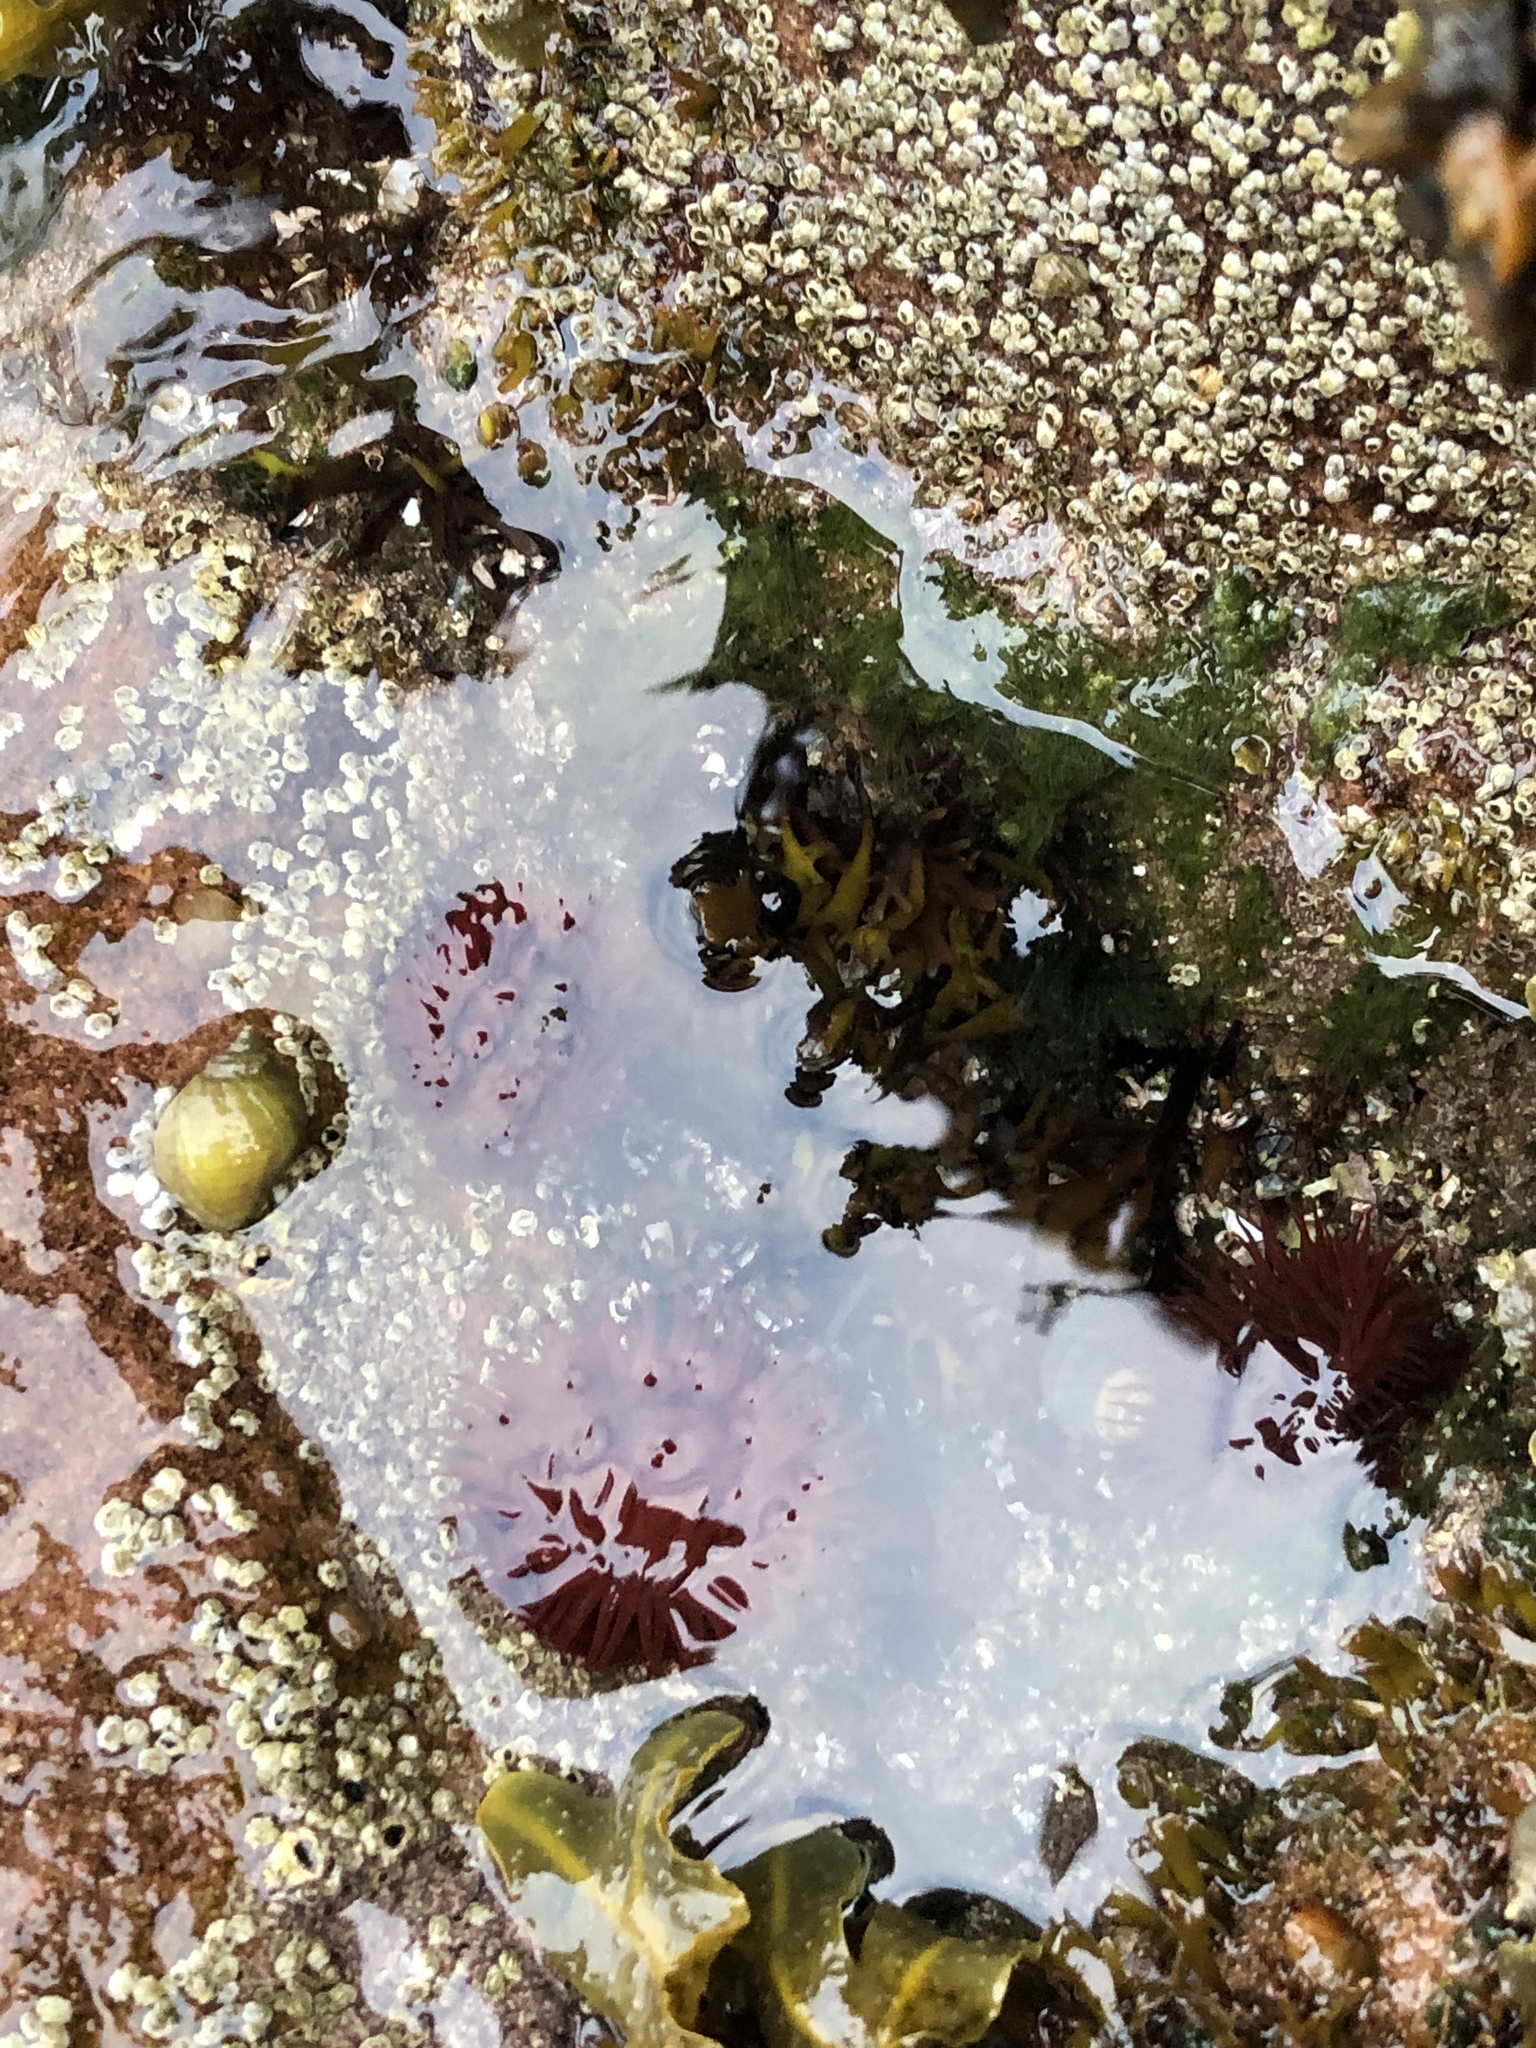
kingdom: Animalia
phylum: Cnidaria
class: Anthozoa
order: Actiniaria
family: Actiniidae
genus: Actinia
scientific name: Actinia equina
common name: Beadlet anemone
